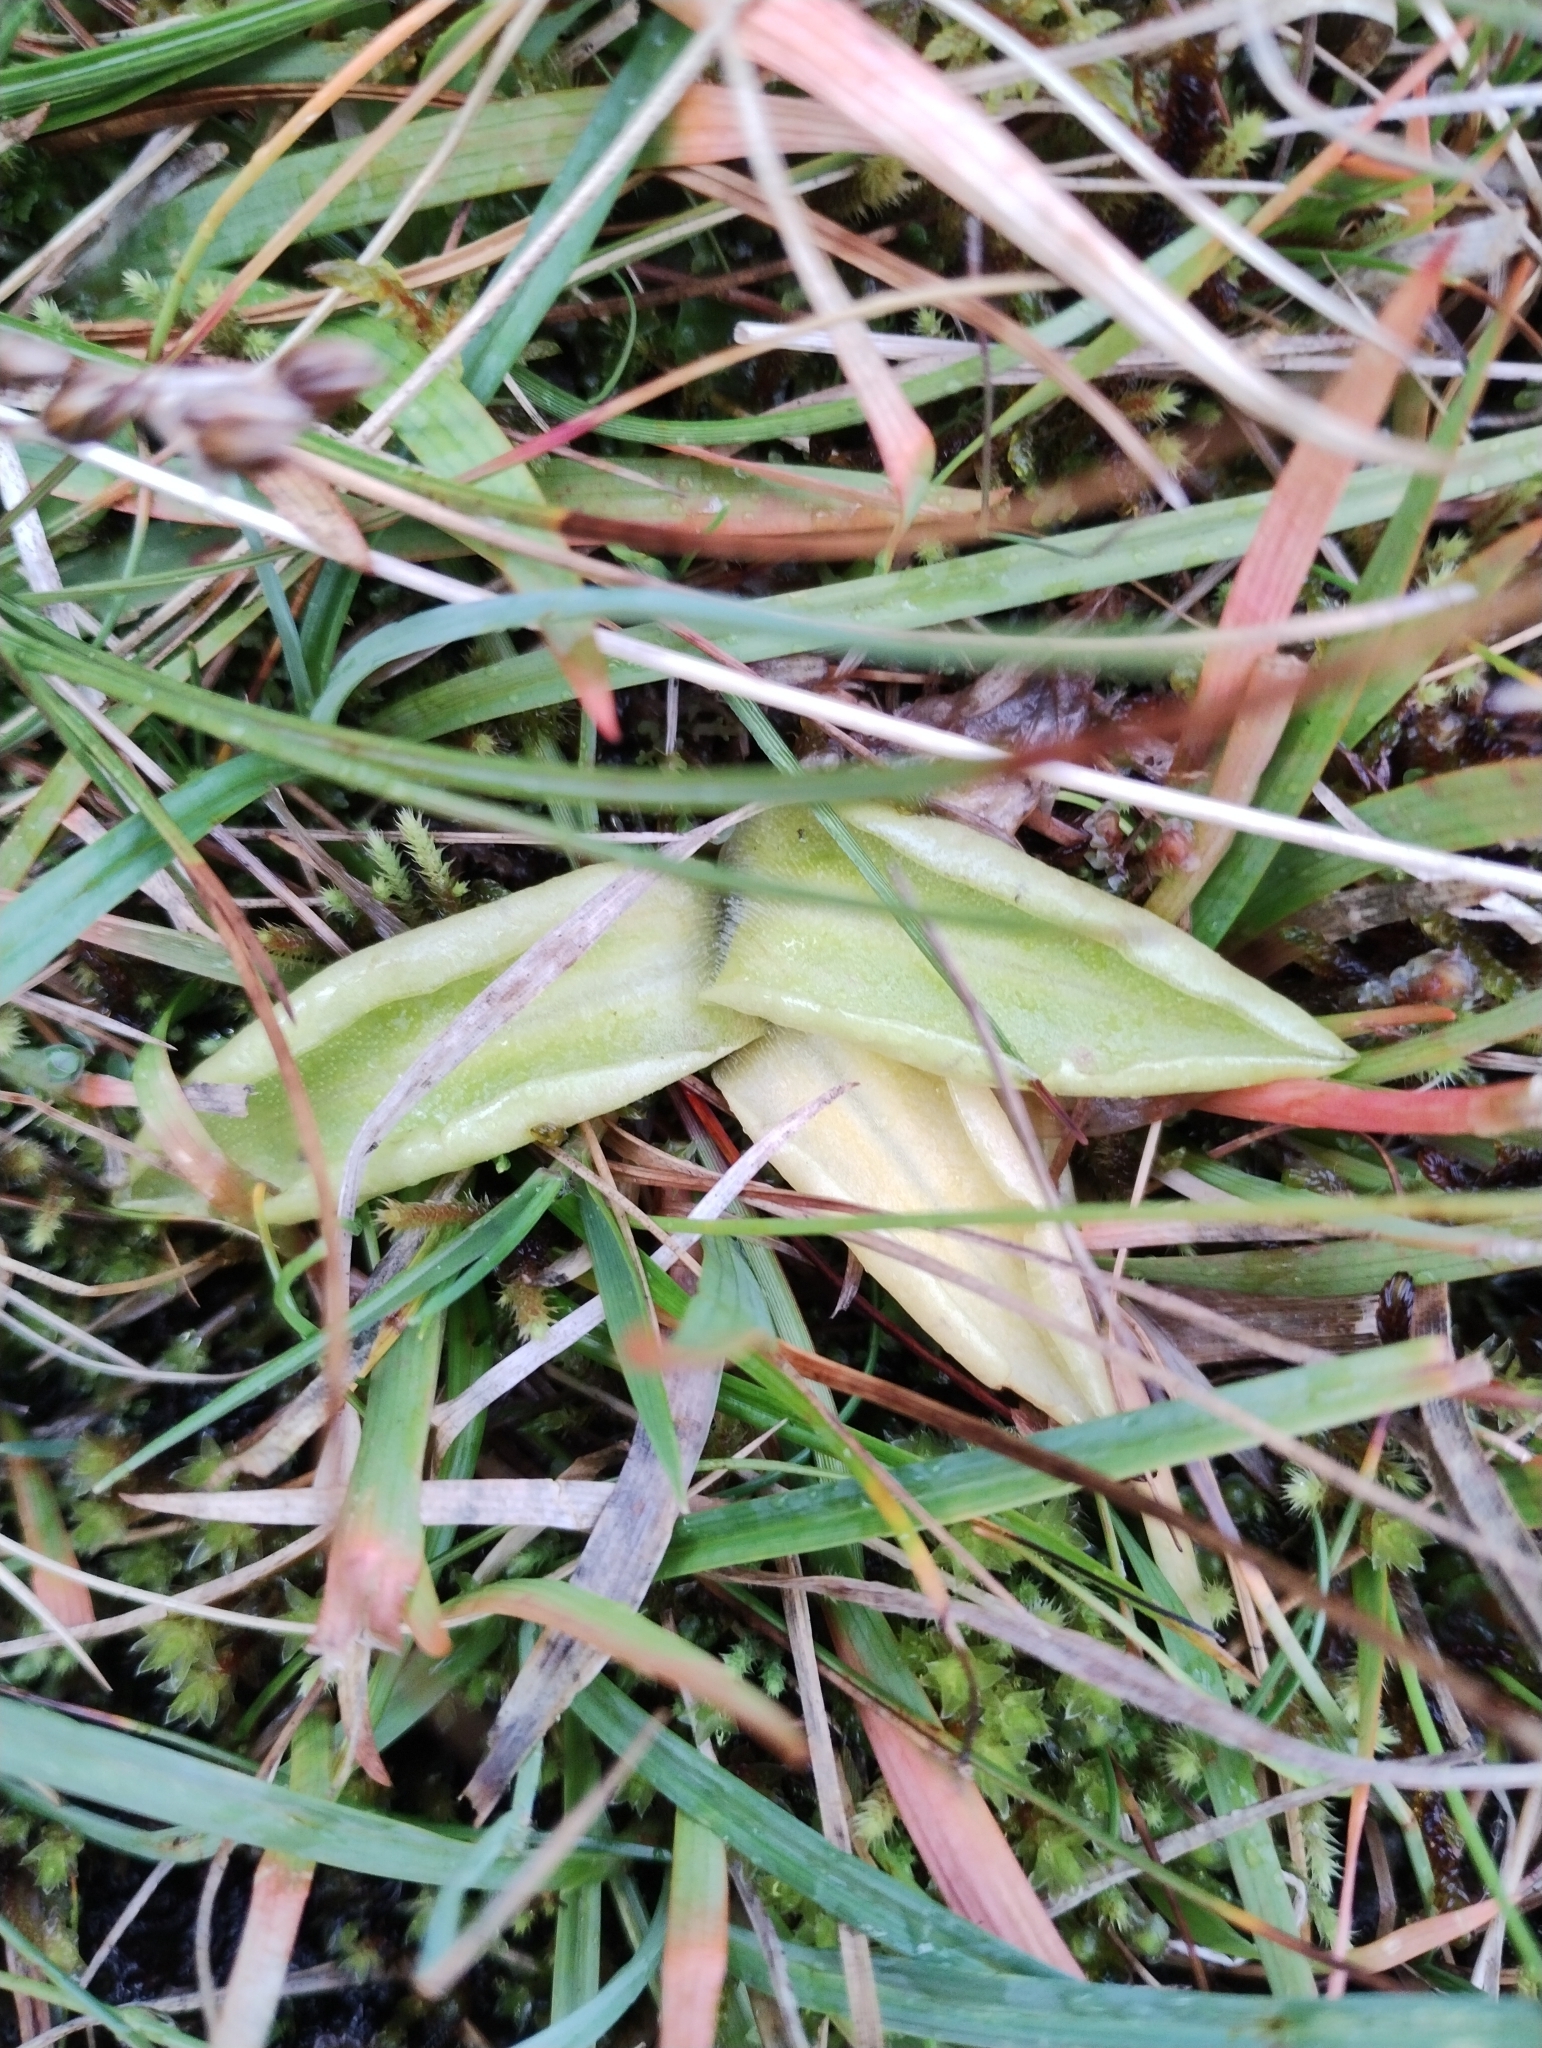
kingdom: Plantae
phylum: Tracheophyta
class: Magnoliopsida
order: Lamiales
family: Lentibulariaceae
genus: Pinguicula
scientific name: Pinguicula vulgaris
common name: Common butterwort
